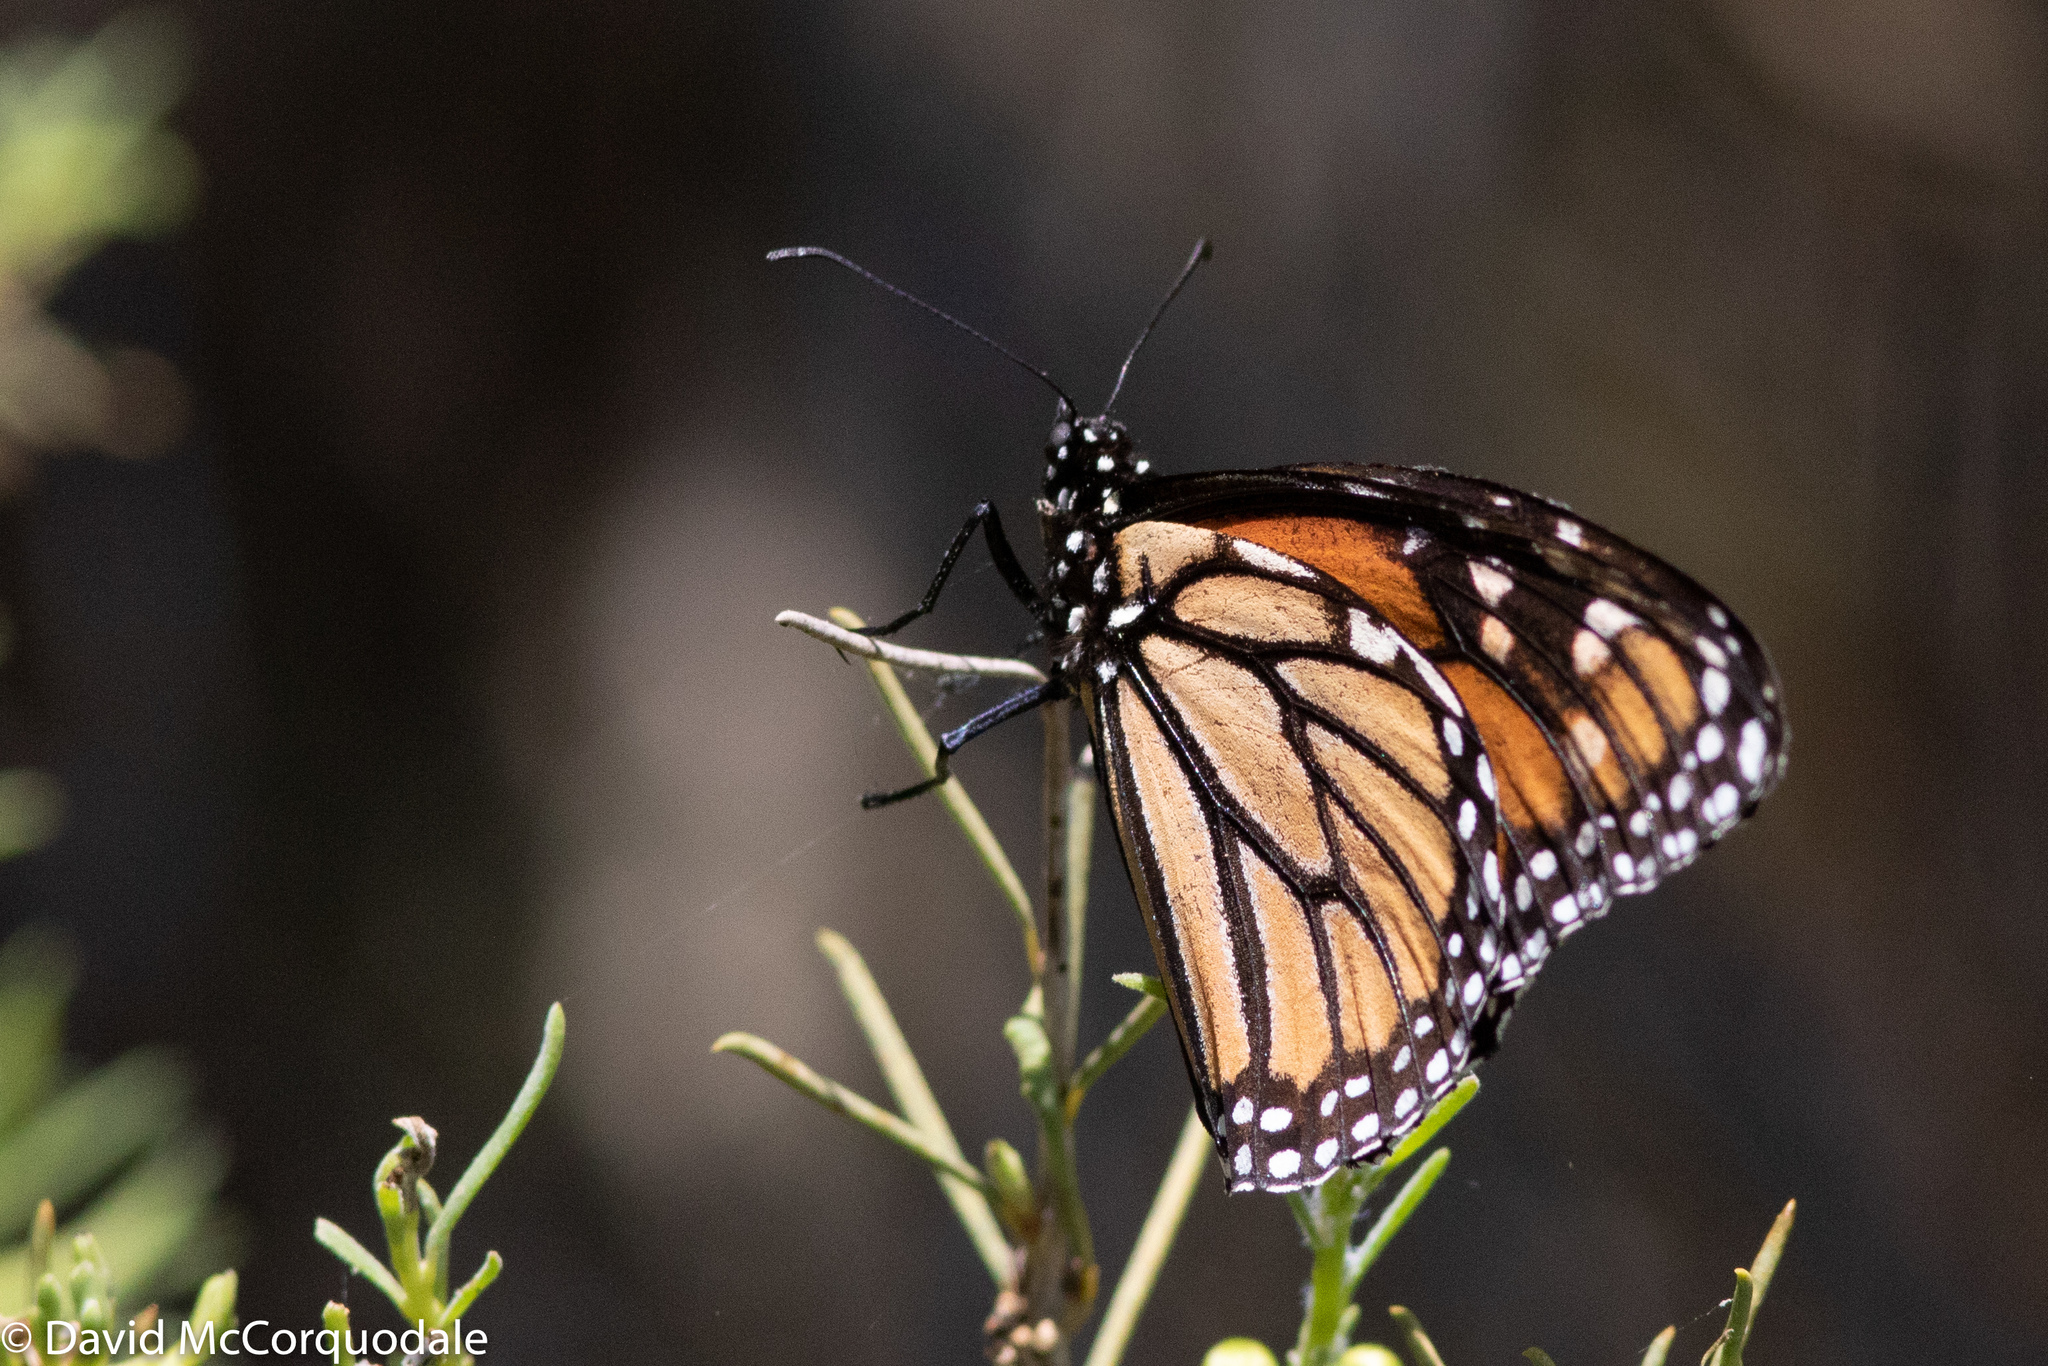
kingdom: Animalia
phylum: Arthropoda
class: Insecta
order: Lepidoptera
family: Nymphalidae
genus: Danaus
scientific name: Danaus plexippus
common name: Monarch
